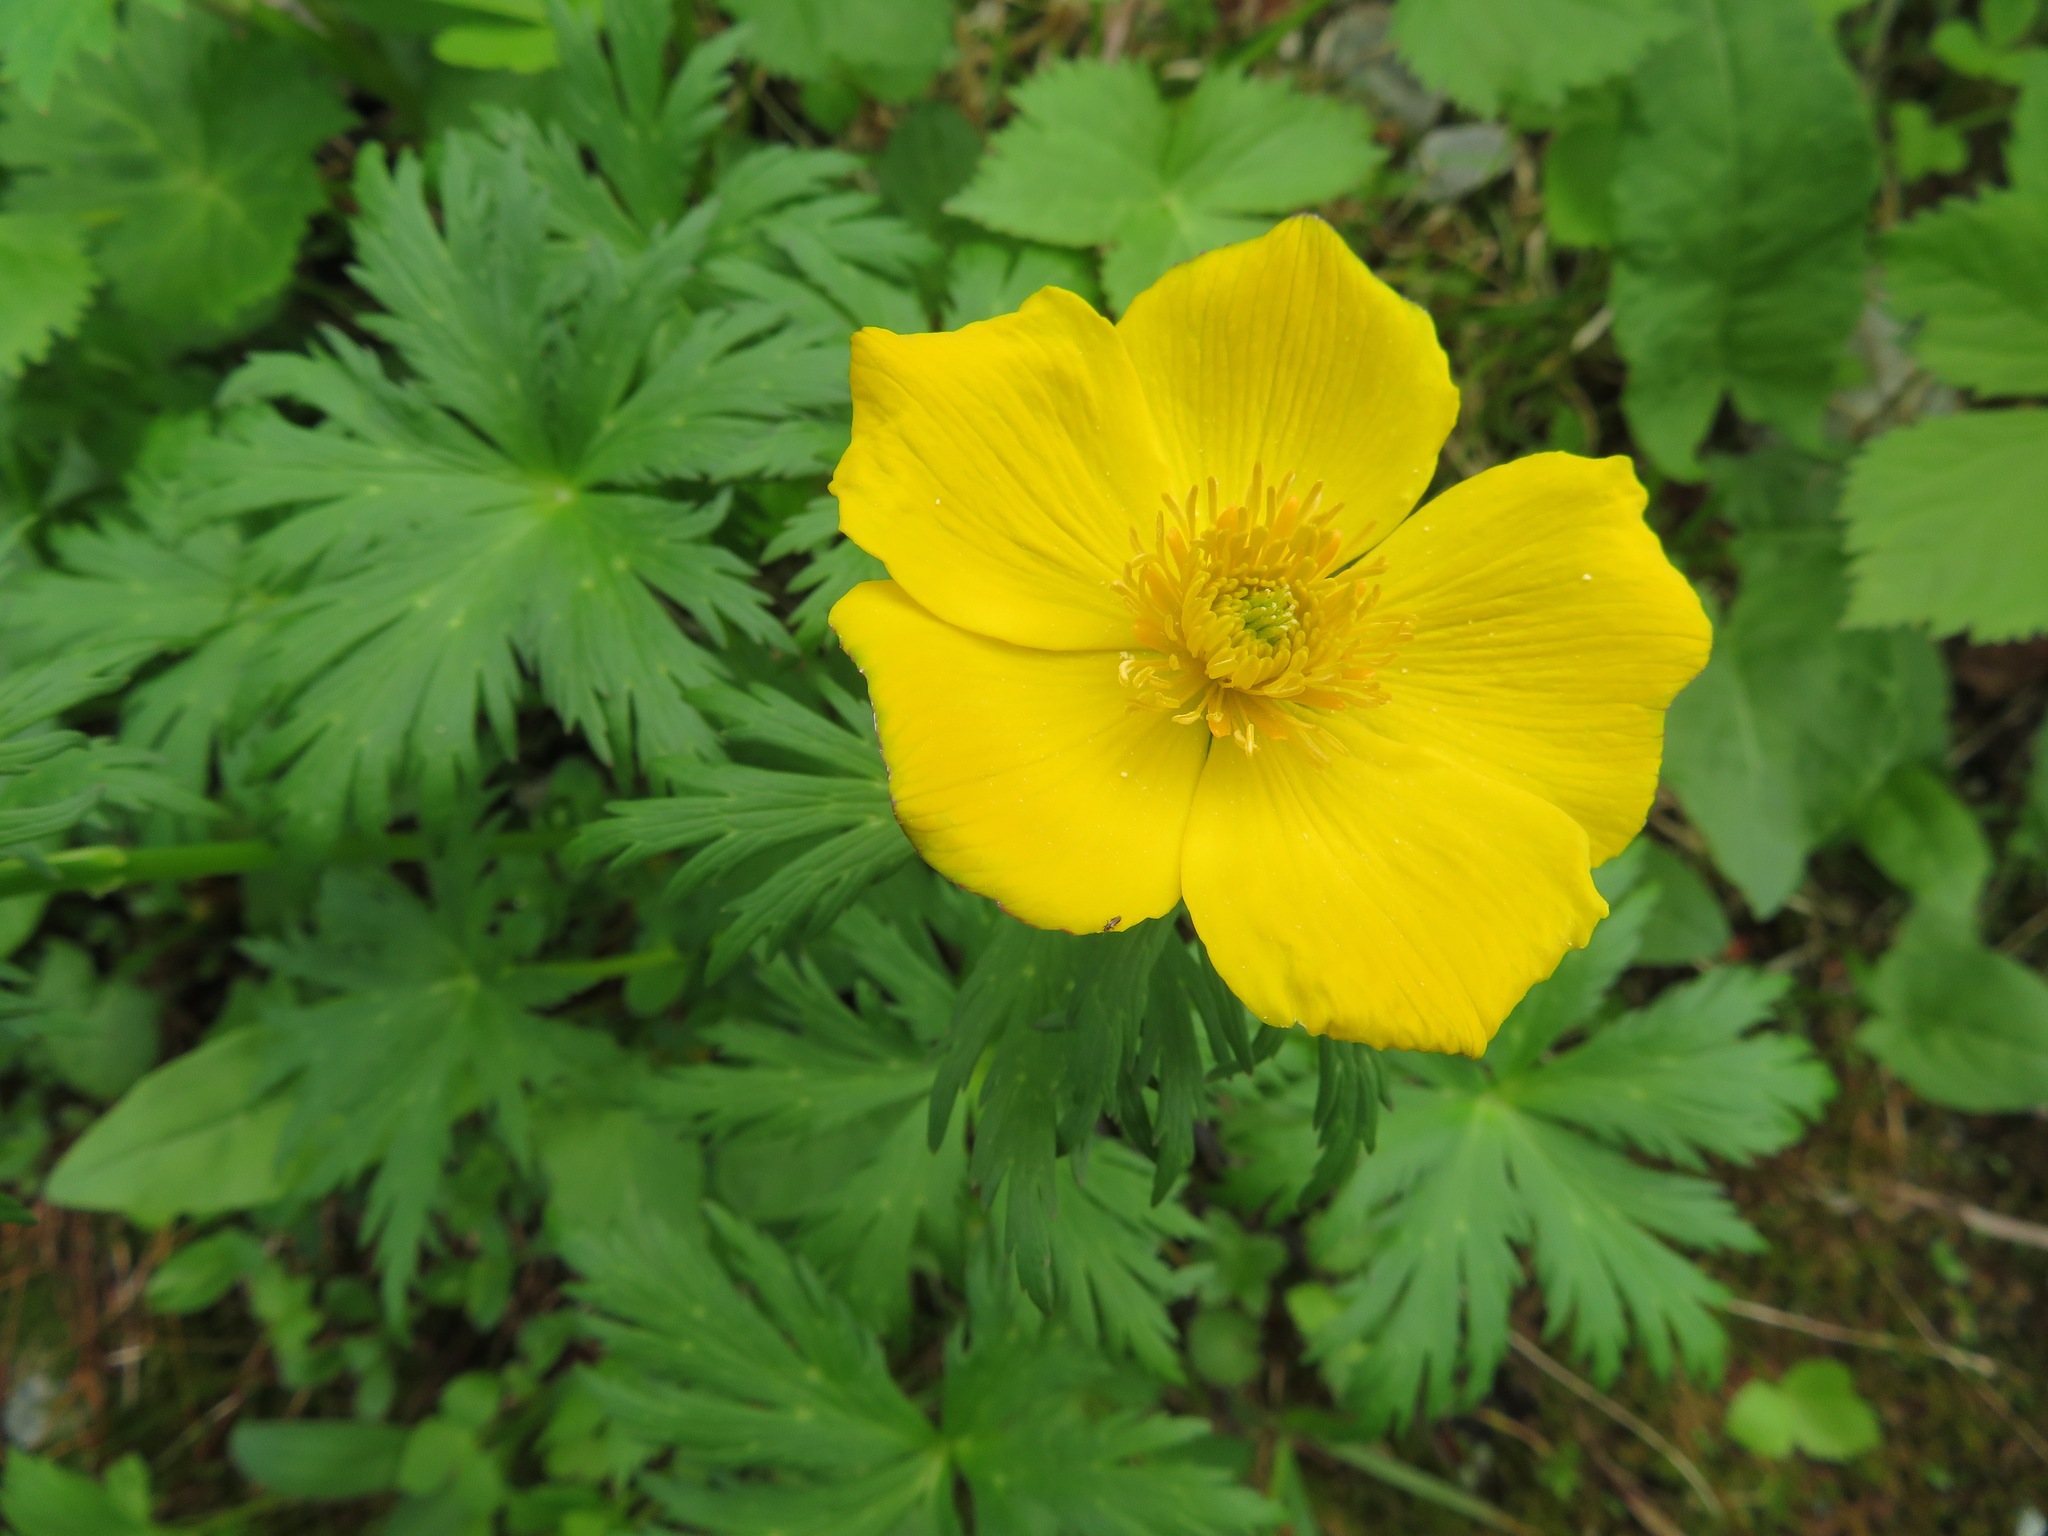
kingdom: Plantae
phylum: Tracheophyta
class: Magnoliopsida
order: Ranunculales
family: Ranunculaceae
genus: Trollius
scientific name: Trollius shinanensis
